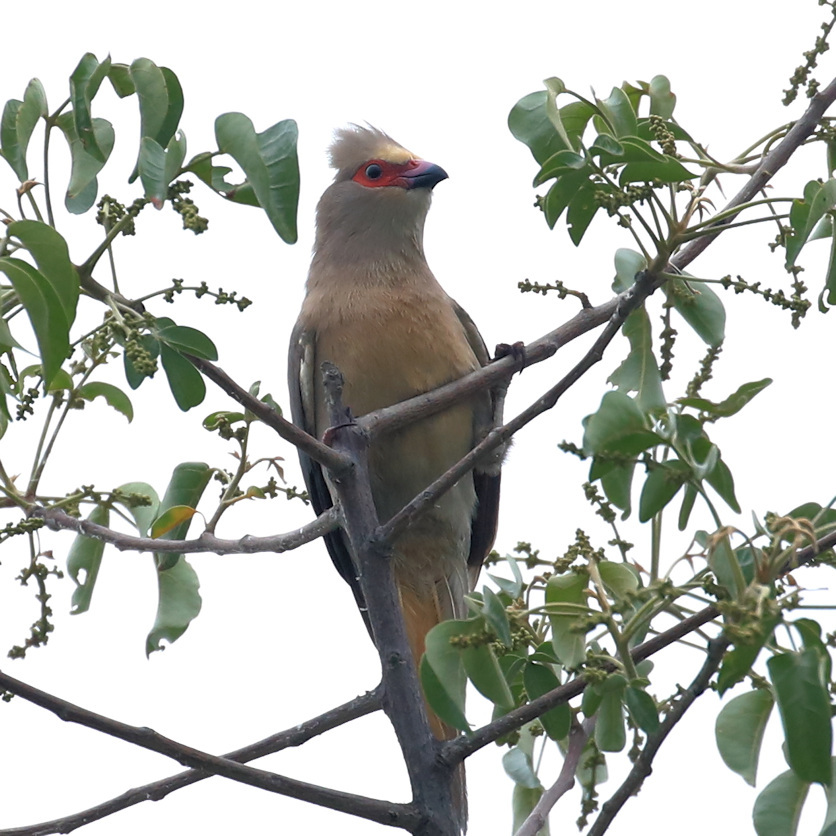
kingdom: Animalia
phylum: Chordata
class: Aves
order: Coliiformes
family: Coliidae
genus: Urocolius
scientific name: Urocolius indicus
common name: Red-faced mousebird
